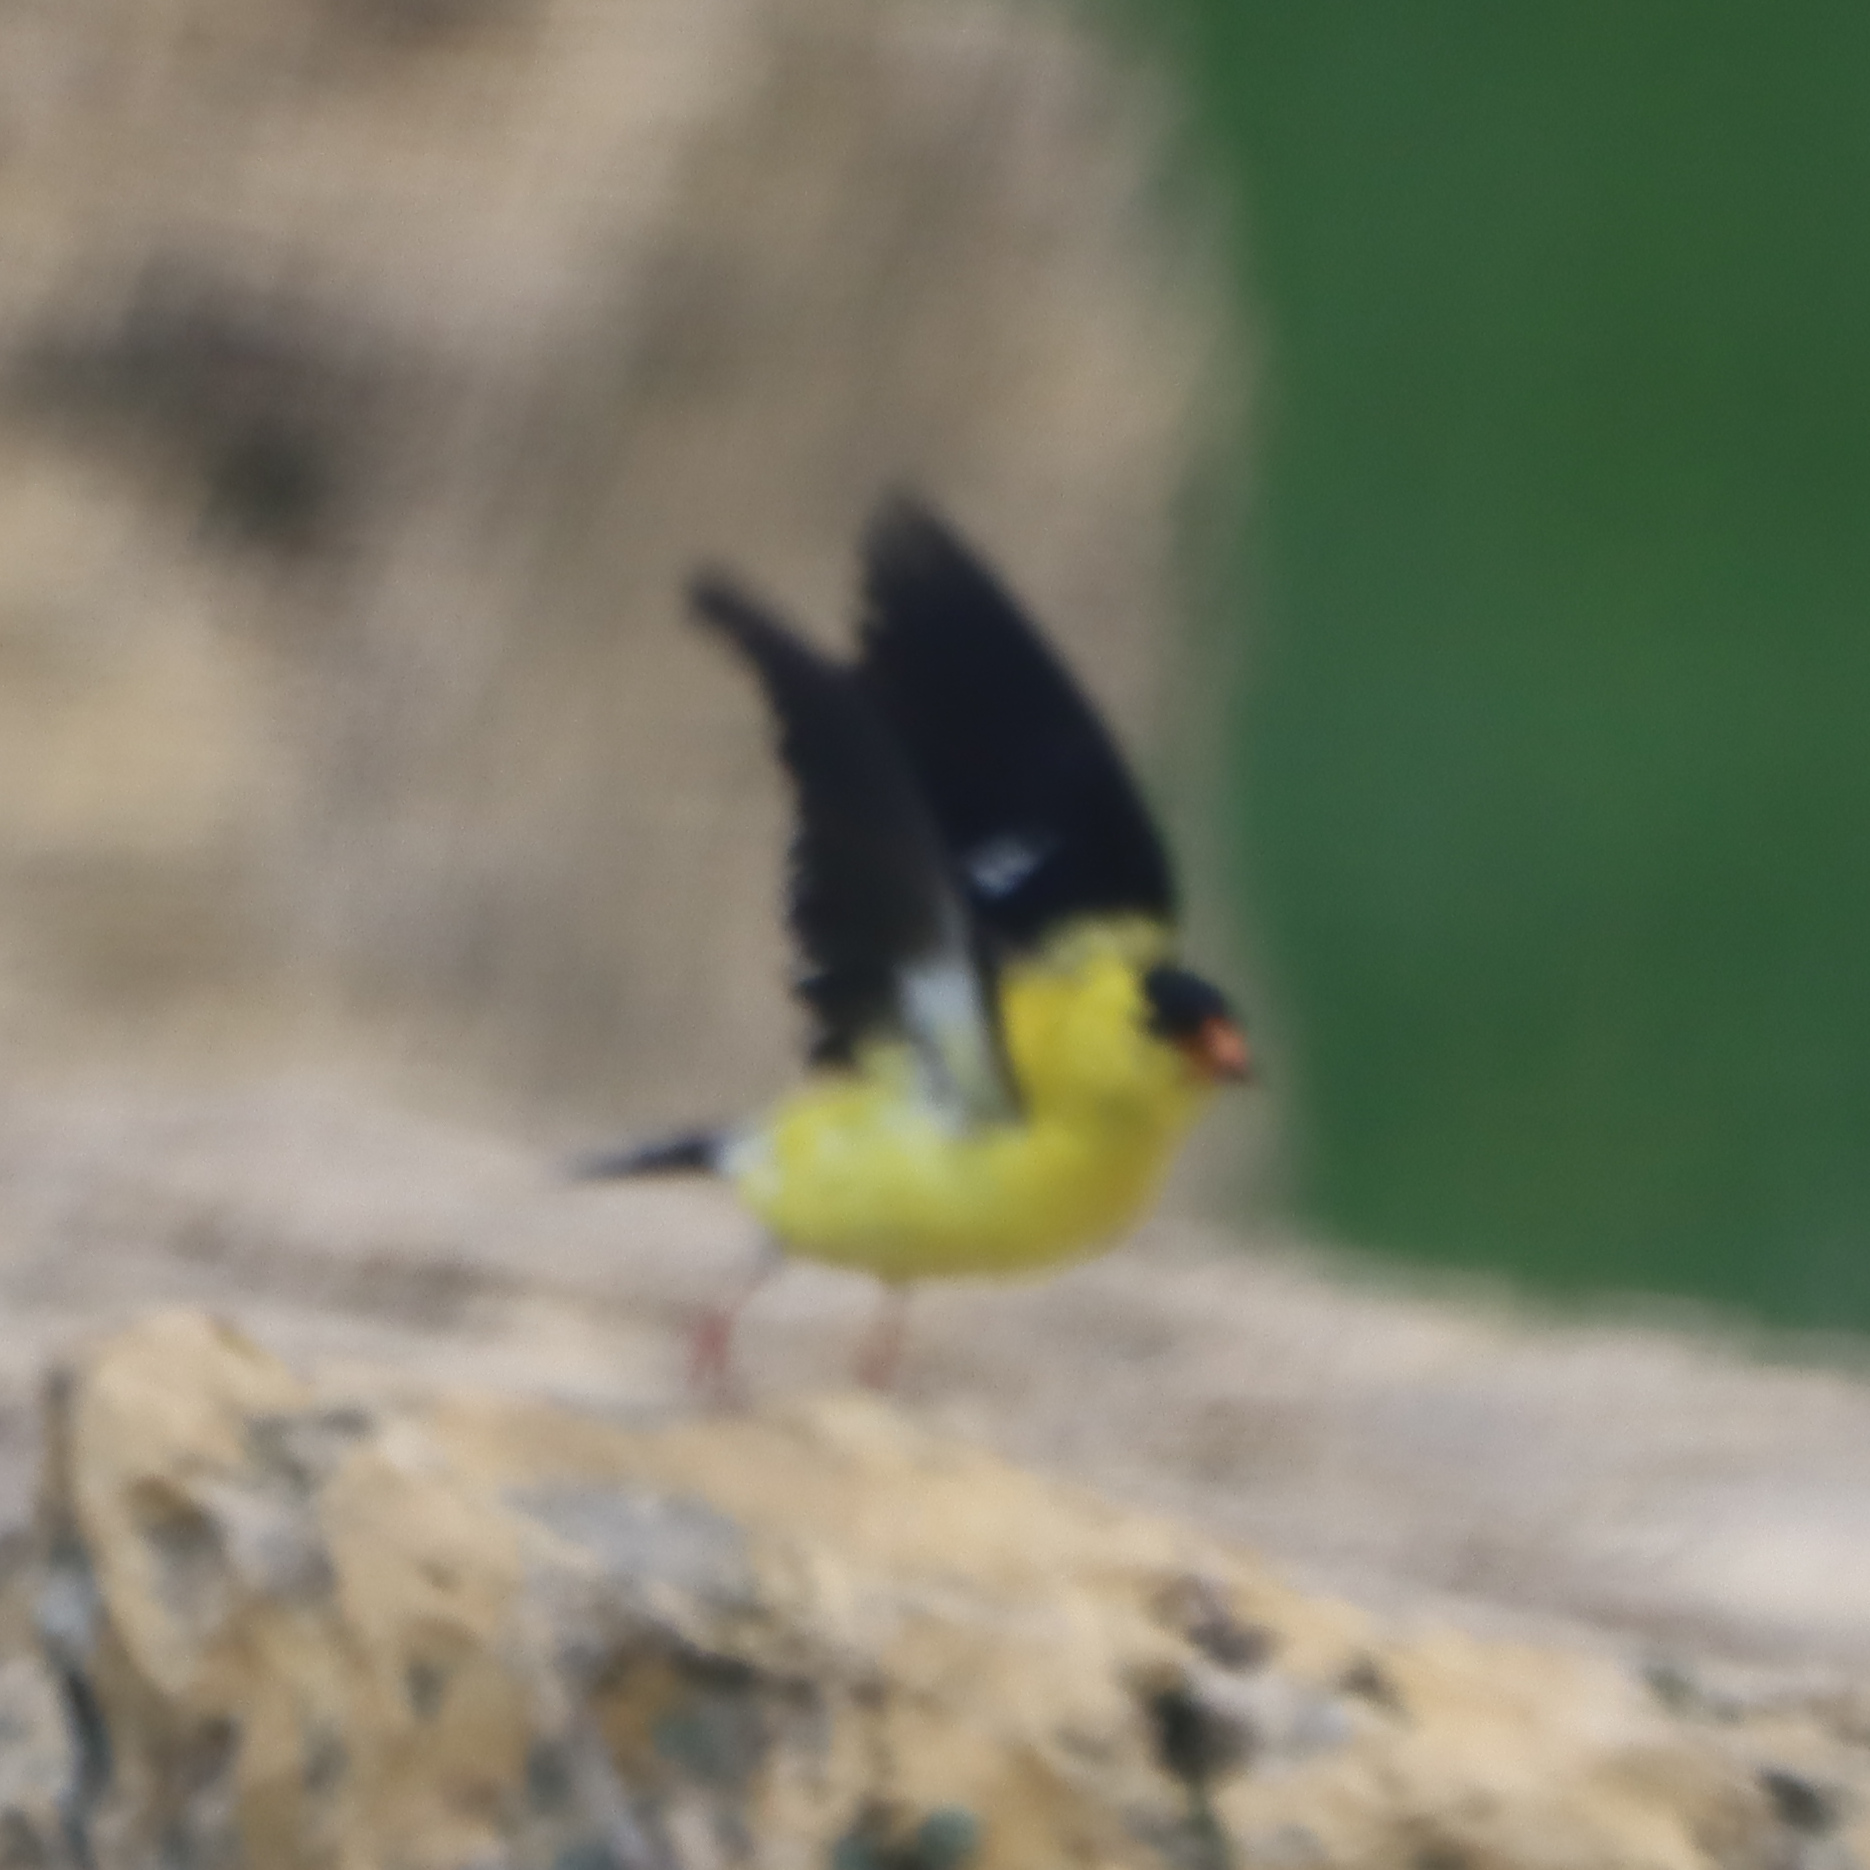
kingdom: Animalia
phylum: Chordata
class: Aves
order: Passeriformes
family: Fringillidae
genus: Spinus
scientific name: Spinus tristis
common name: American goldfinch
